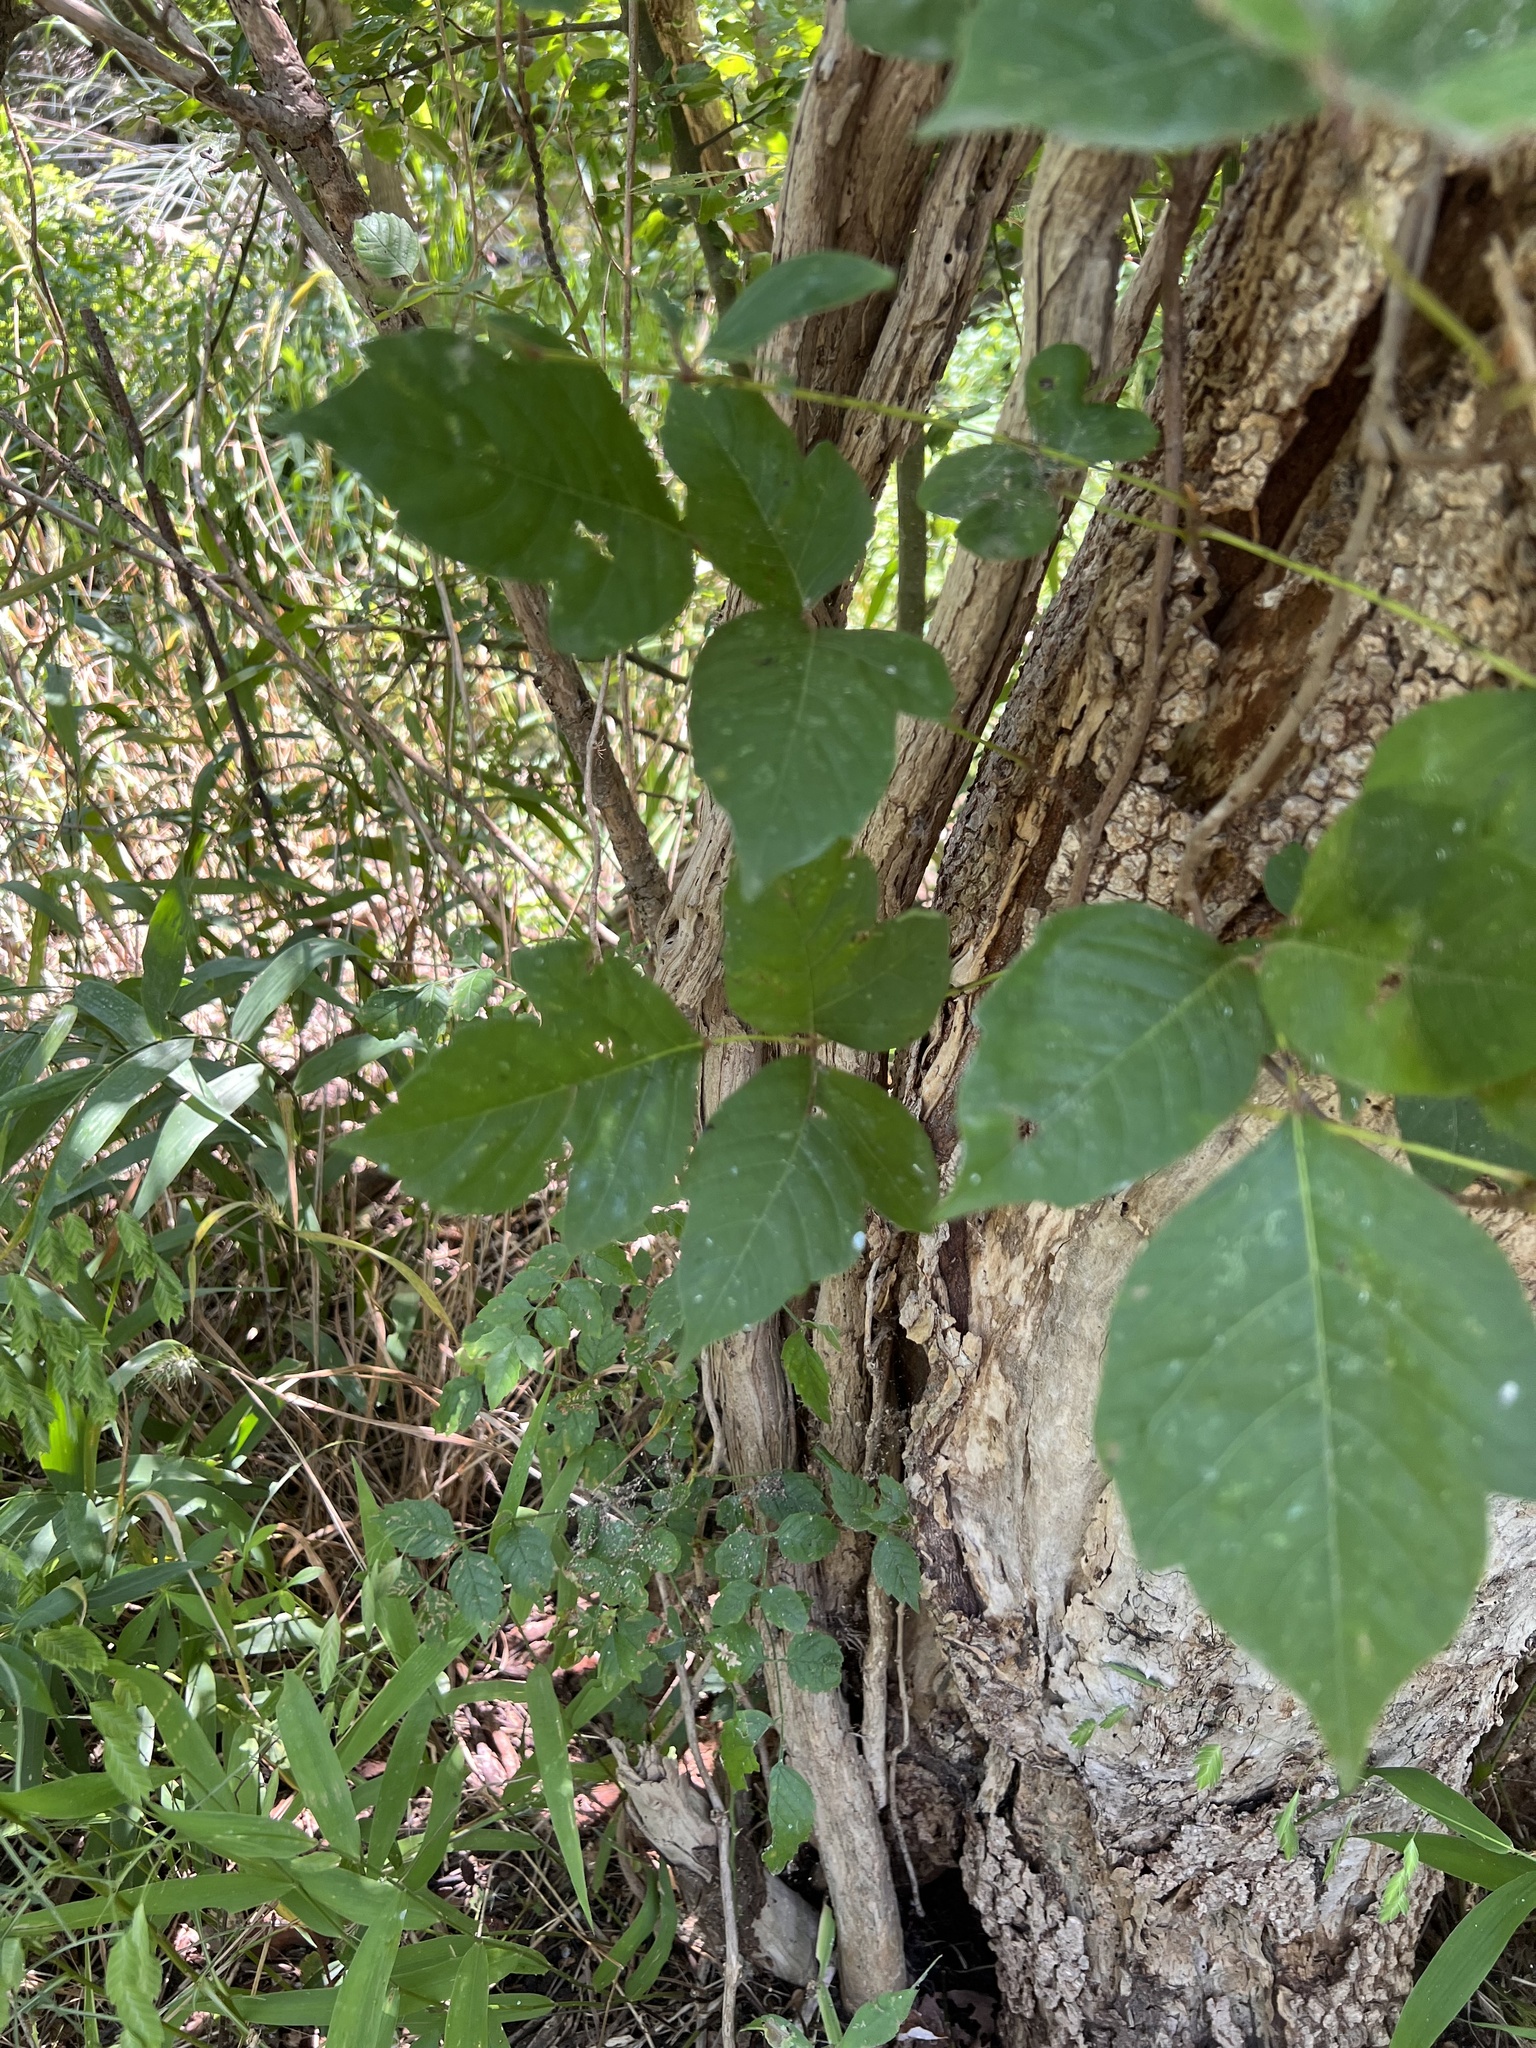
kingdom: Plantae
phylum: Tracheophyta
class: Magnoliopsida
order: Sapindales
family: Anacardiaceae
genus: Toxicodendron
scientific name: Toxicodendron radicans
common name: Poison ivy
